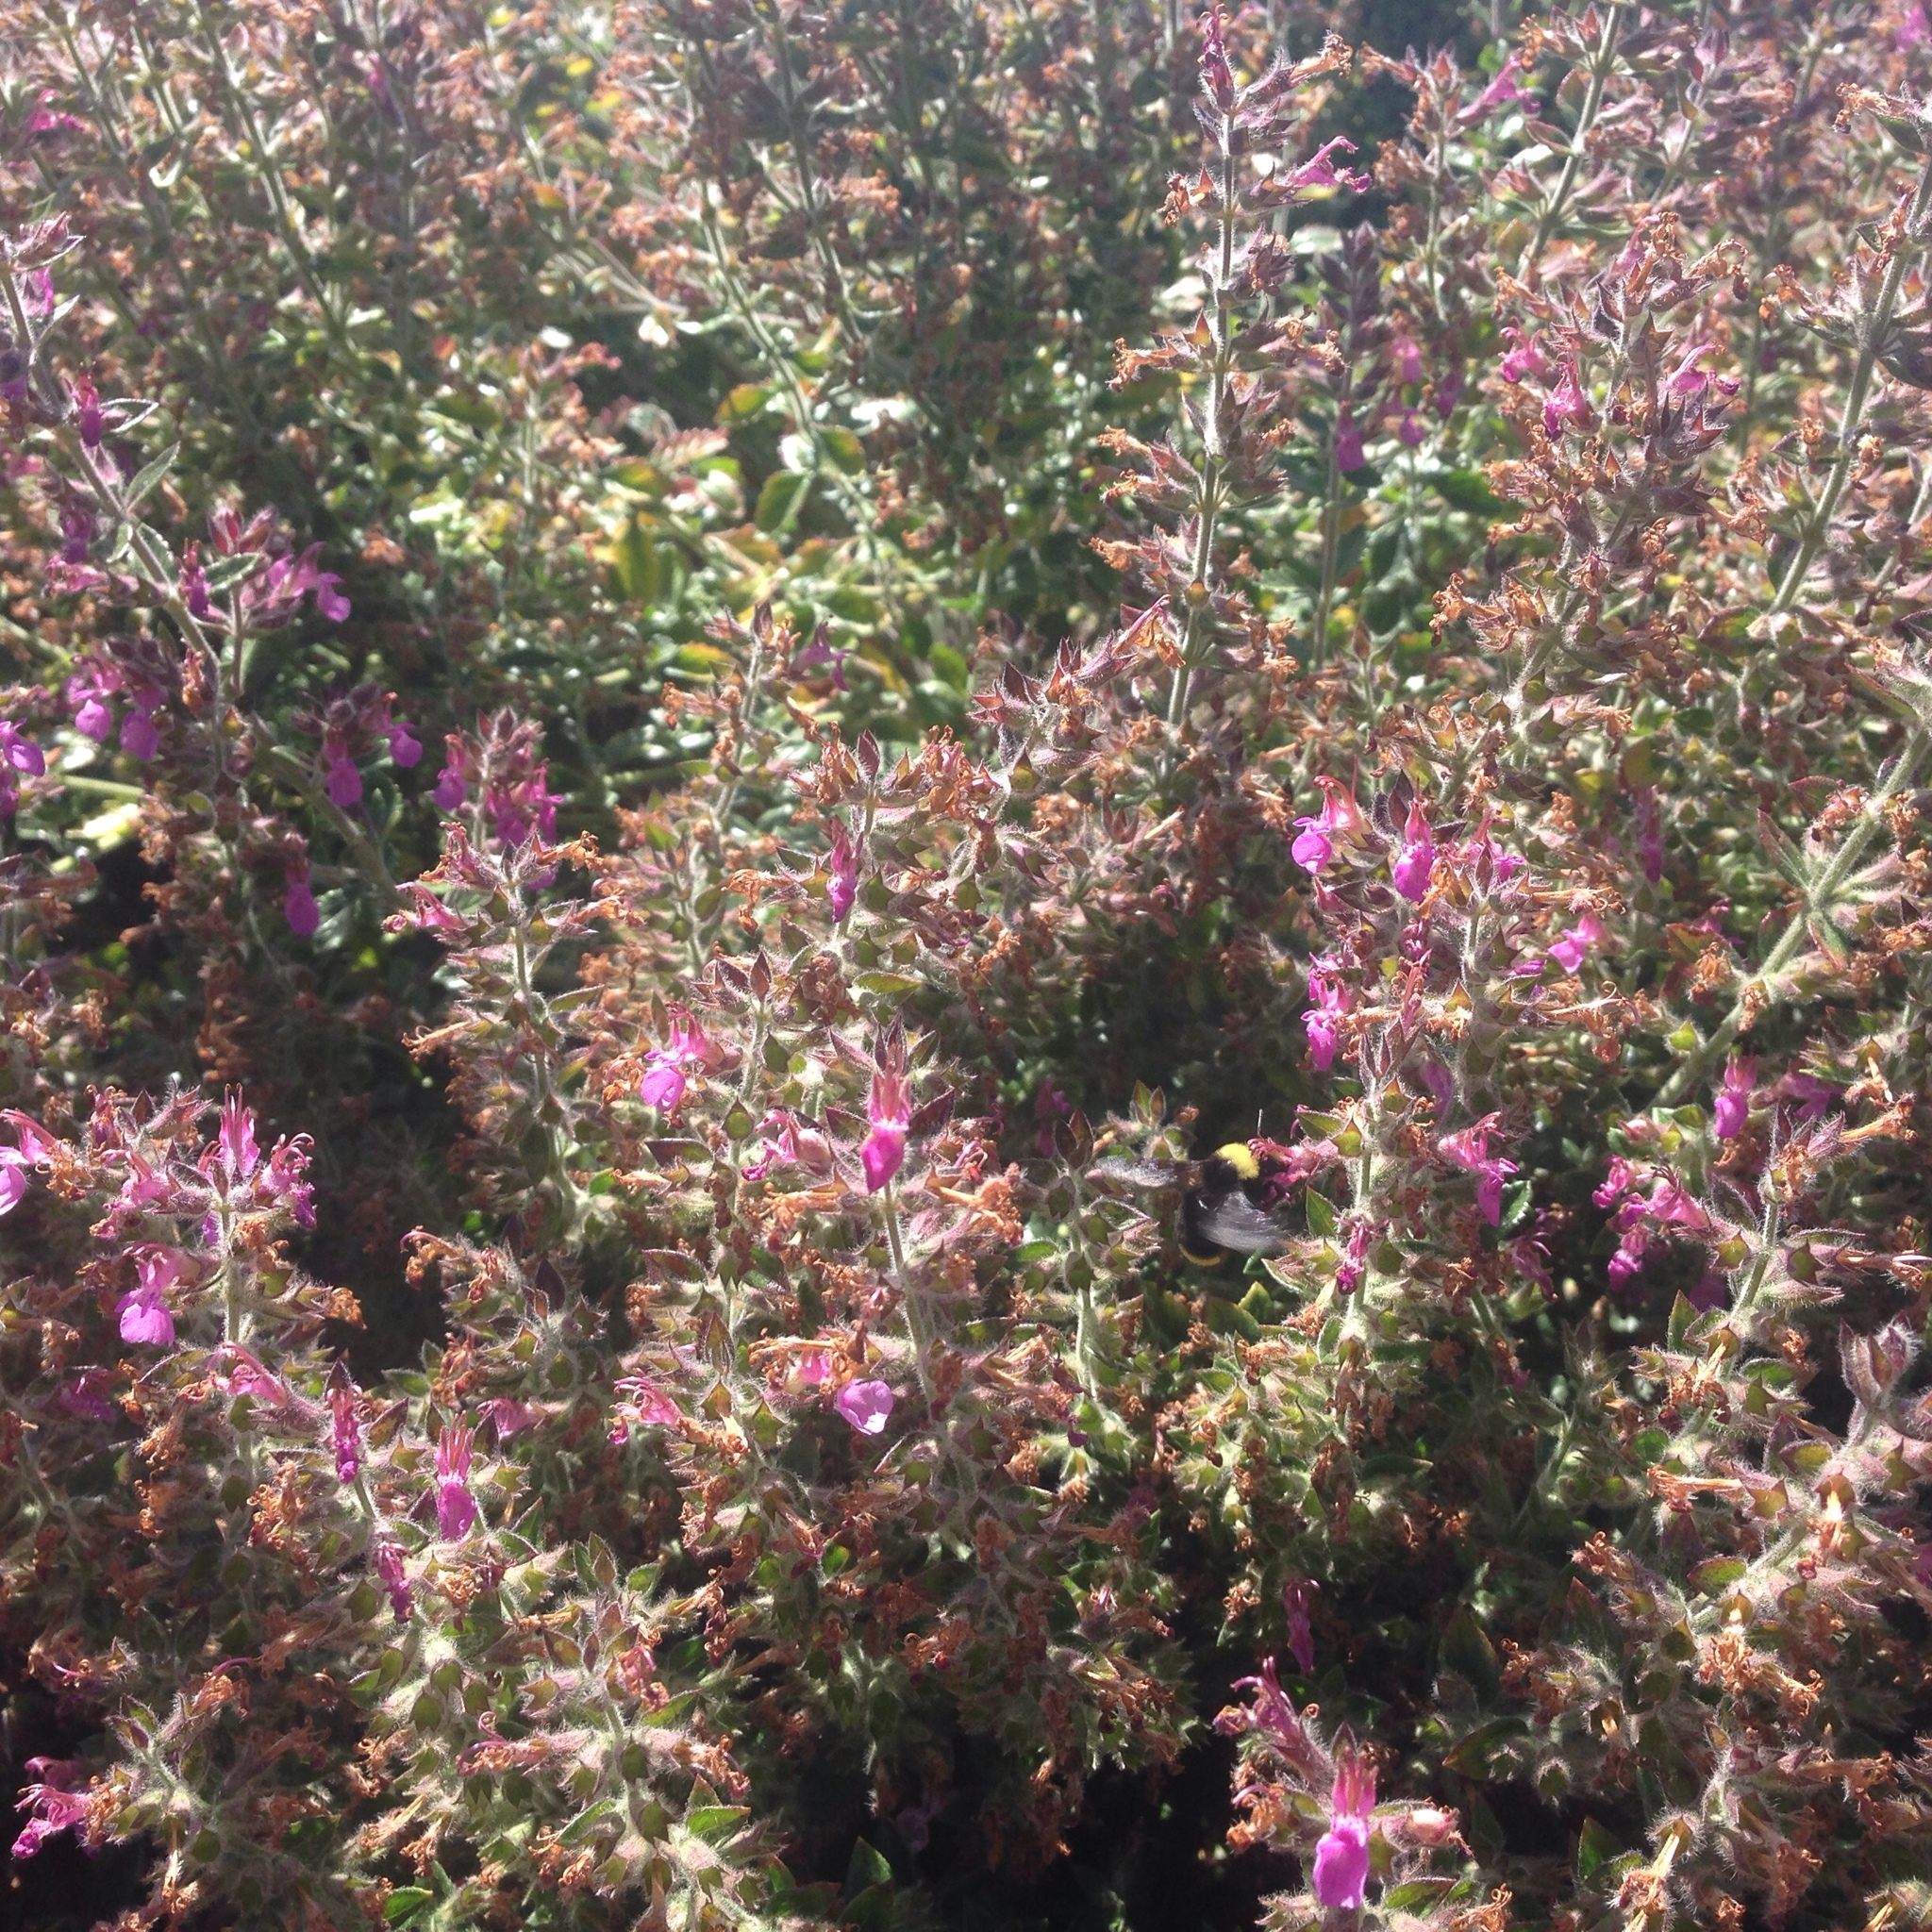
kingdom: Animalia
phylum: Arthropoda
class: Insecta
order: Hymenoptera
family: Apidae
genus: Bombus
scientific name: Bombus vosnesenskii
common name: Vosnesensky bumble bee
